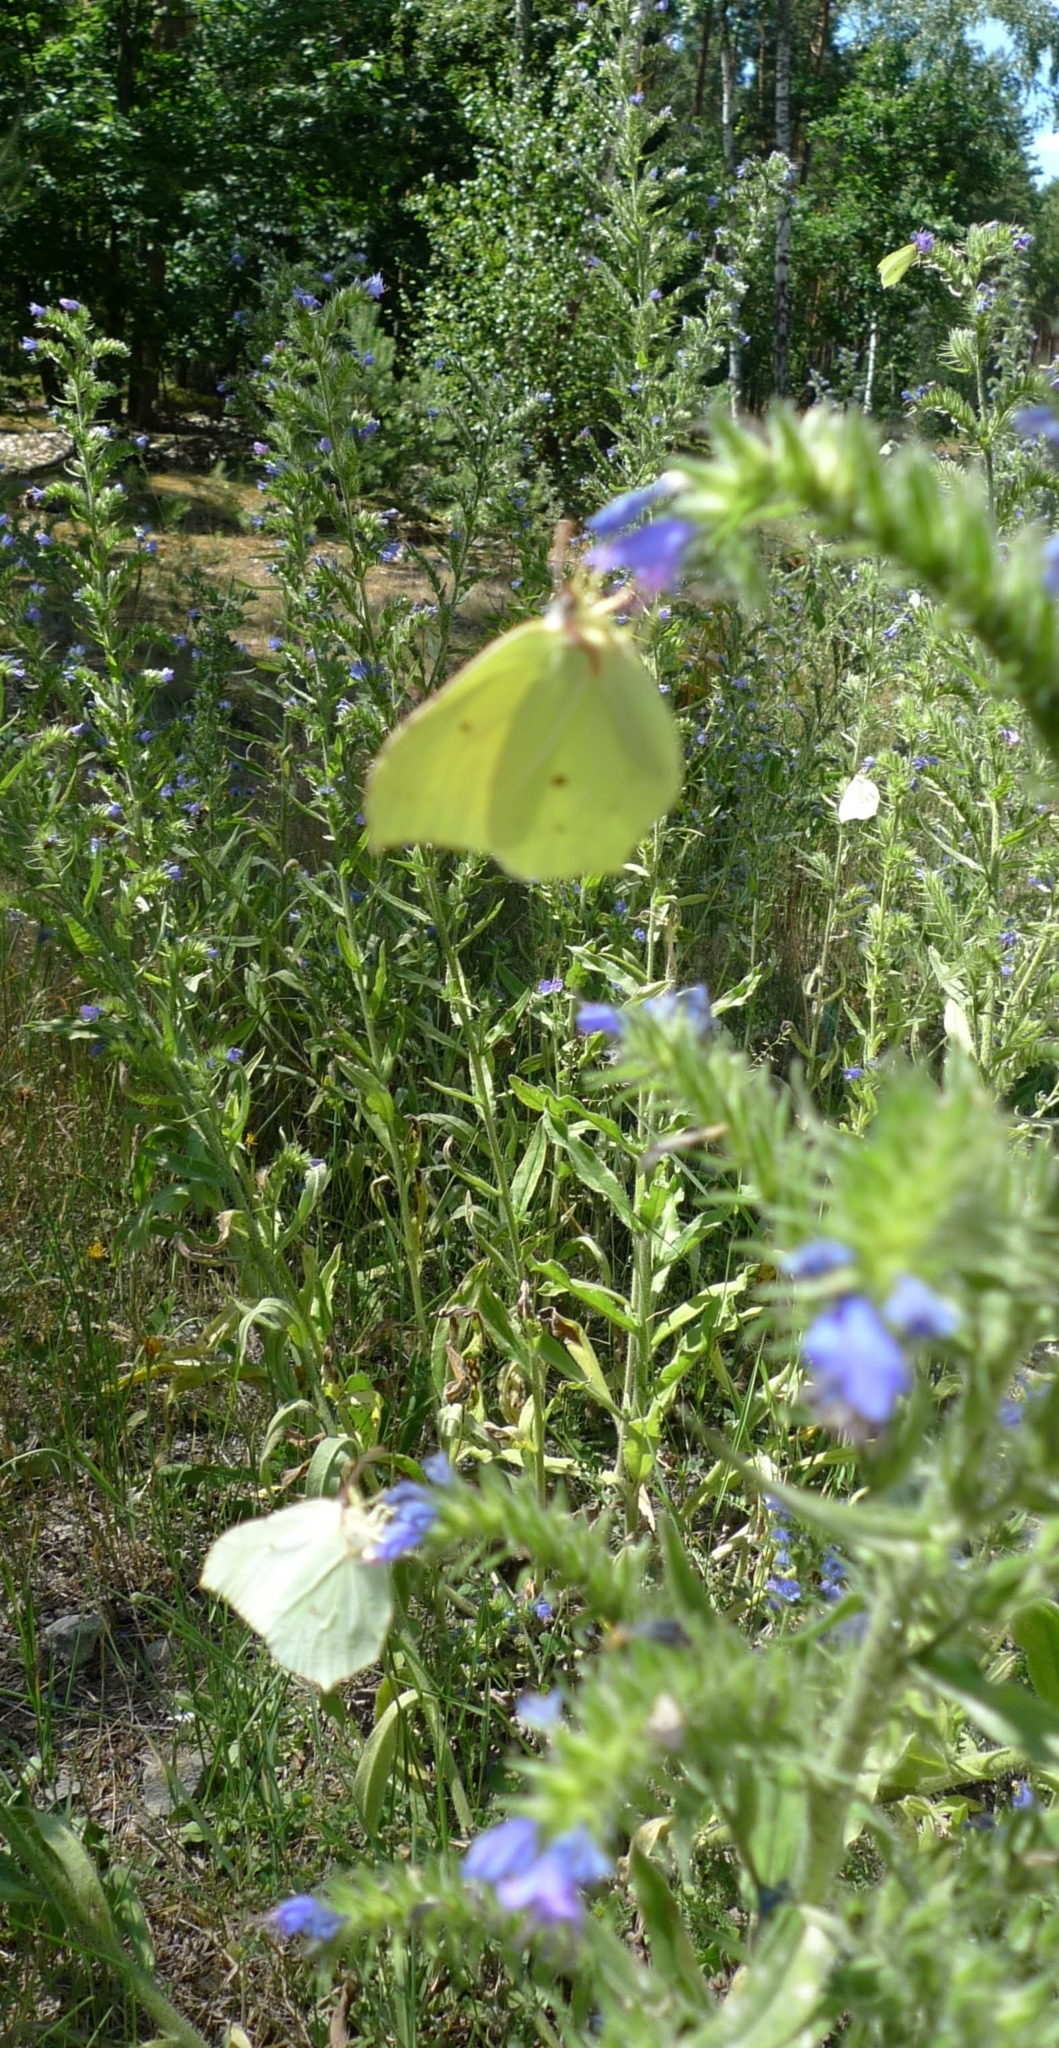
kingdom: Animalia
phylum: Arthropoda
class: Insecta
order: Lepidoptera
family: Pieridae
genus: Gonepteryx
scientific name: Gonepteryx rhamni
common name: Brimstone
